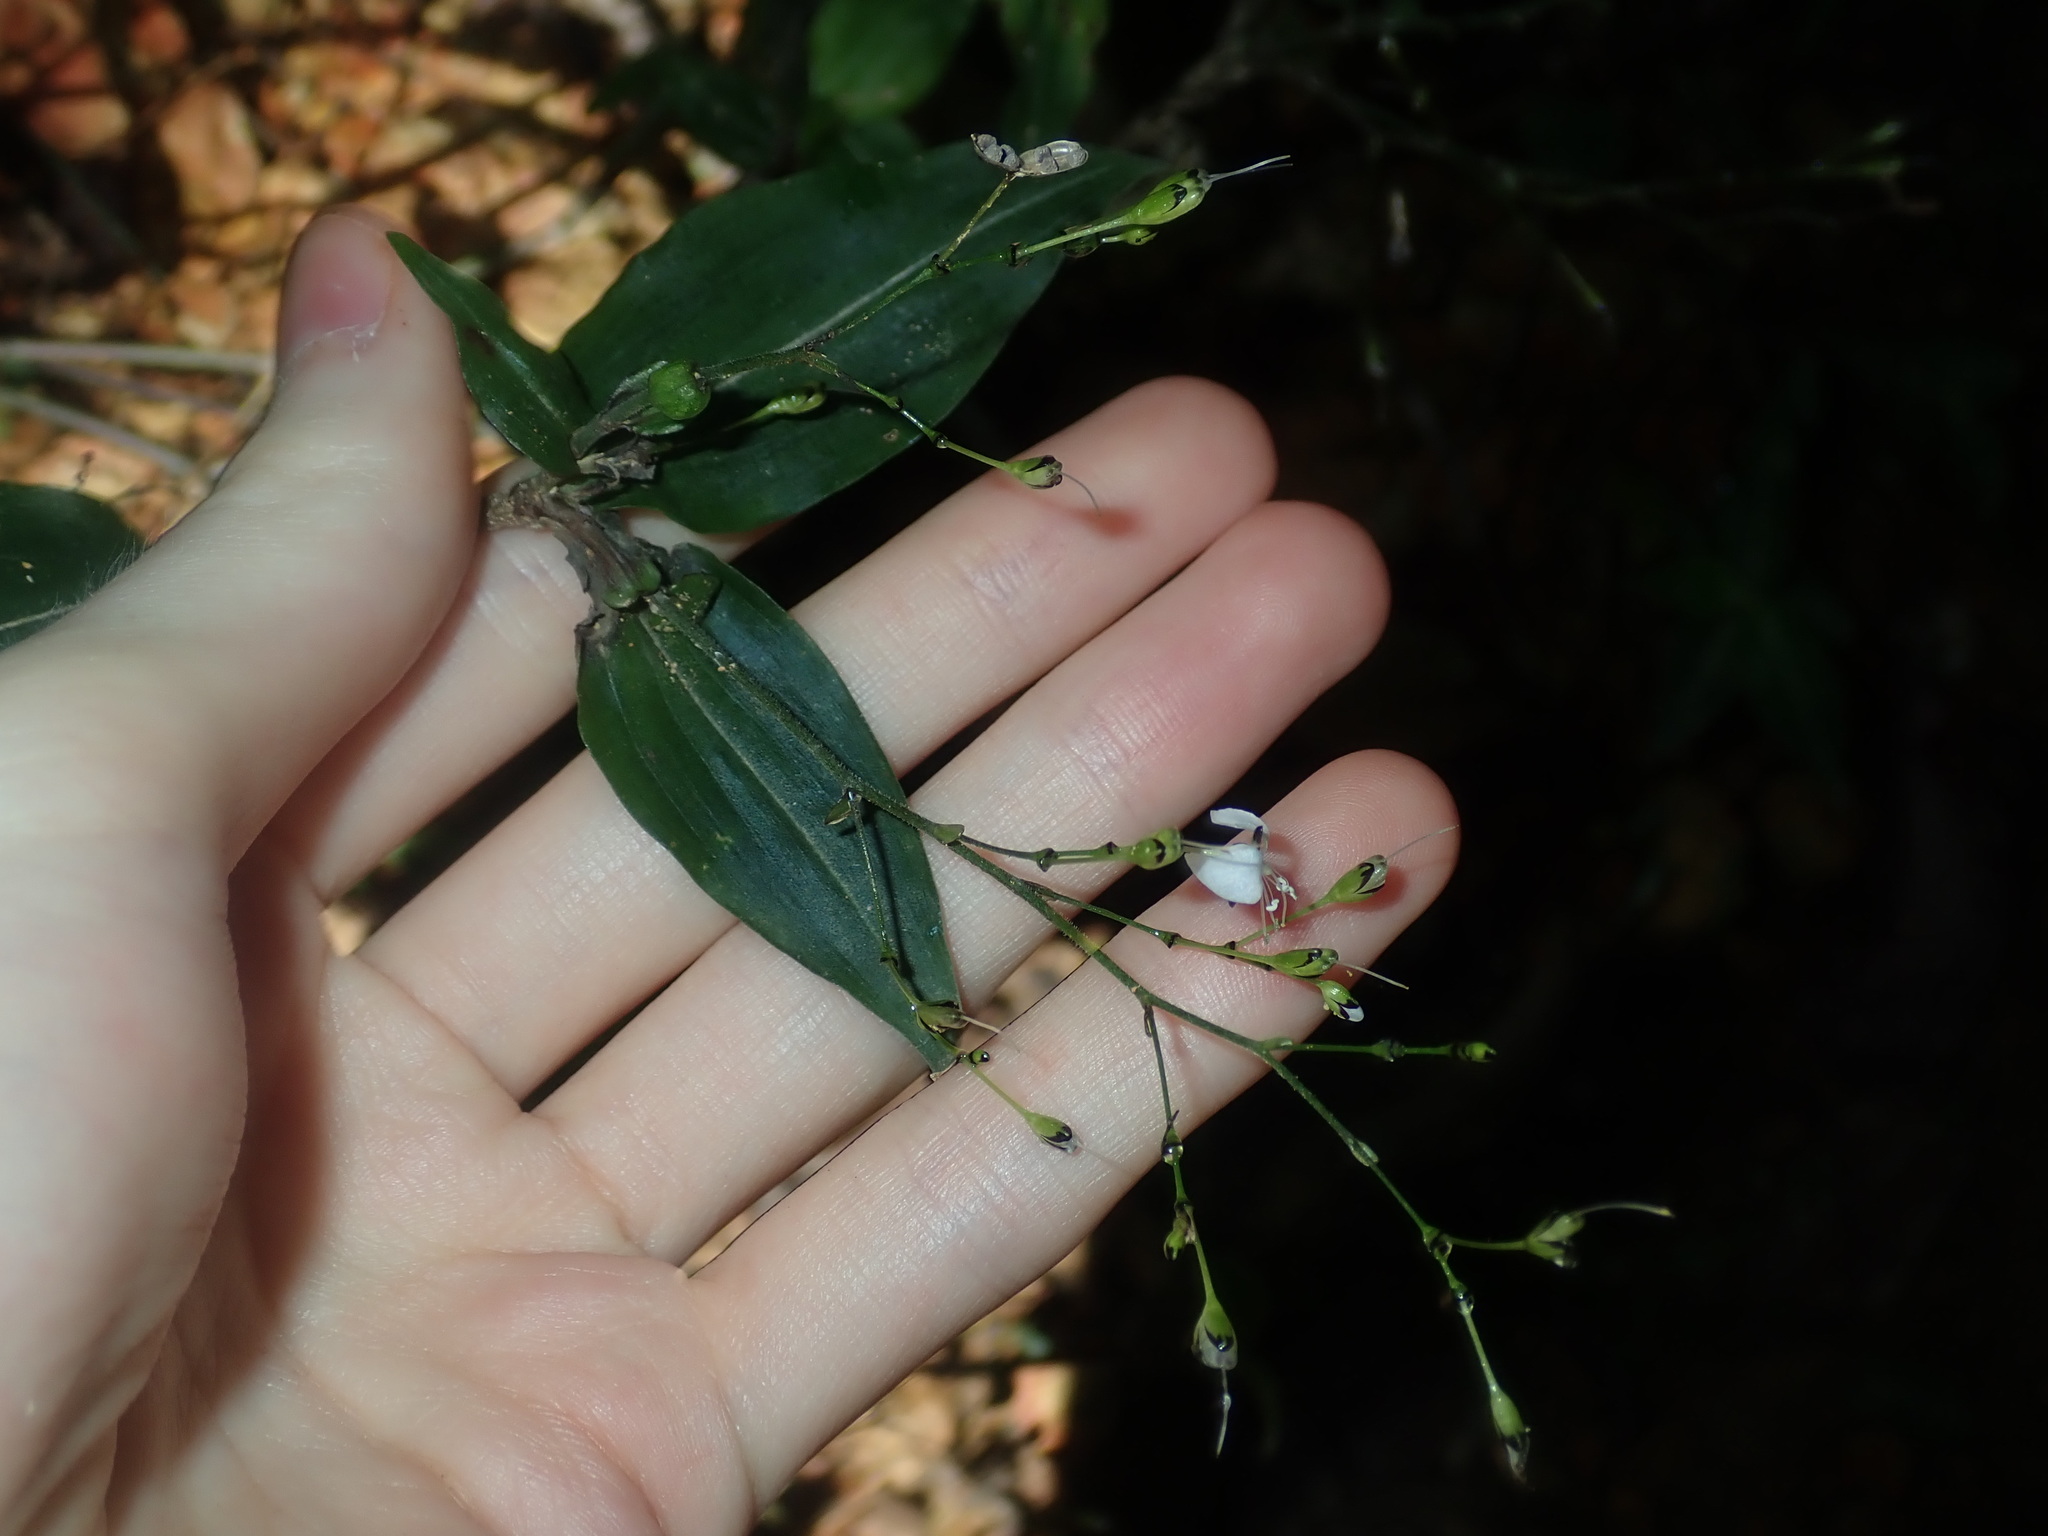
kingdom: Plantae
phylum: Tracheophyta
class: Liliopsida
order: Commelinales
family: Commelinaceae
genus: Aneilema
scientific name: Aneilema acuminatum
